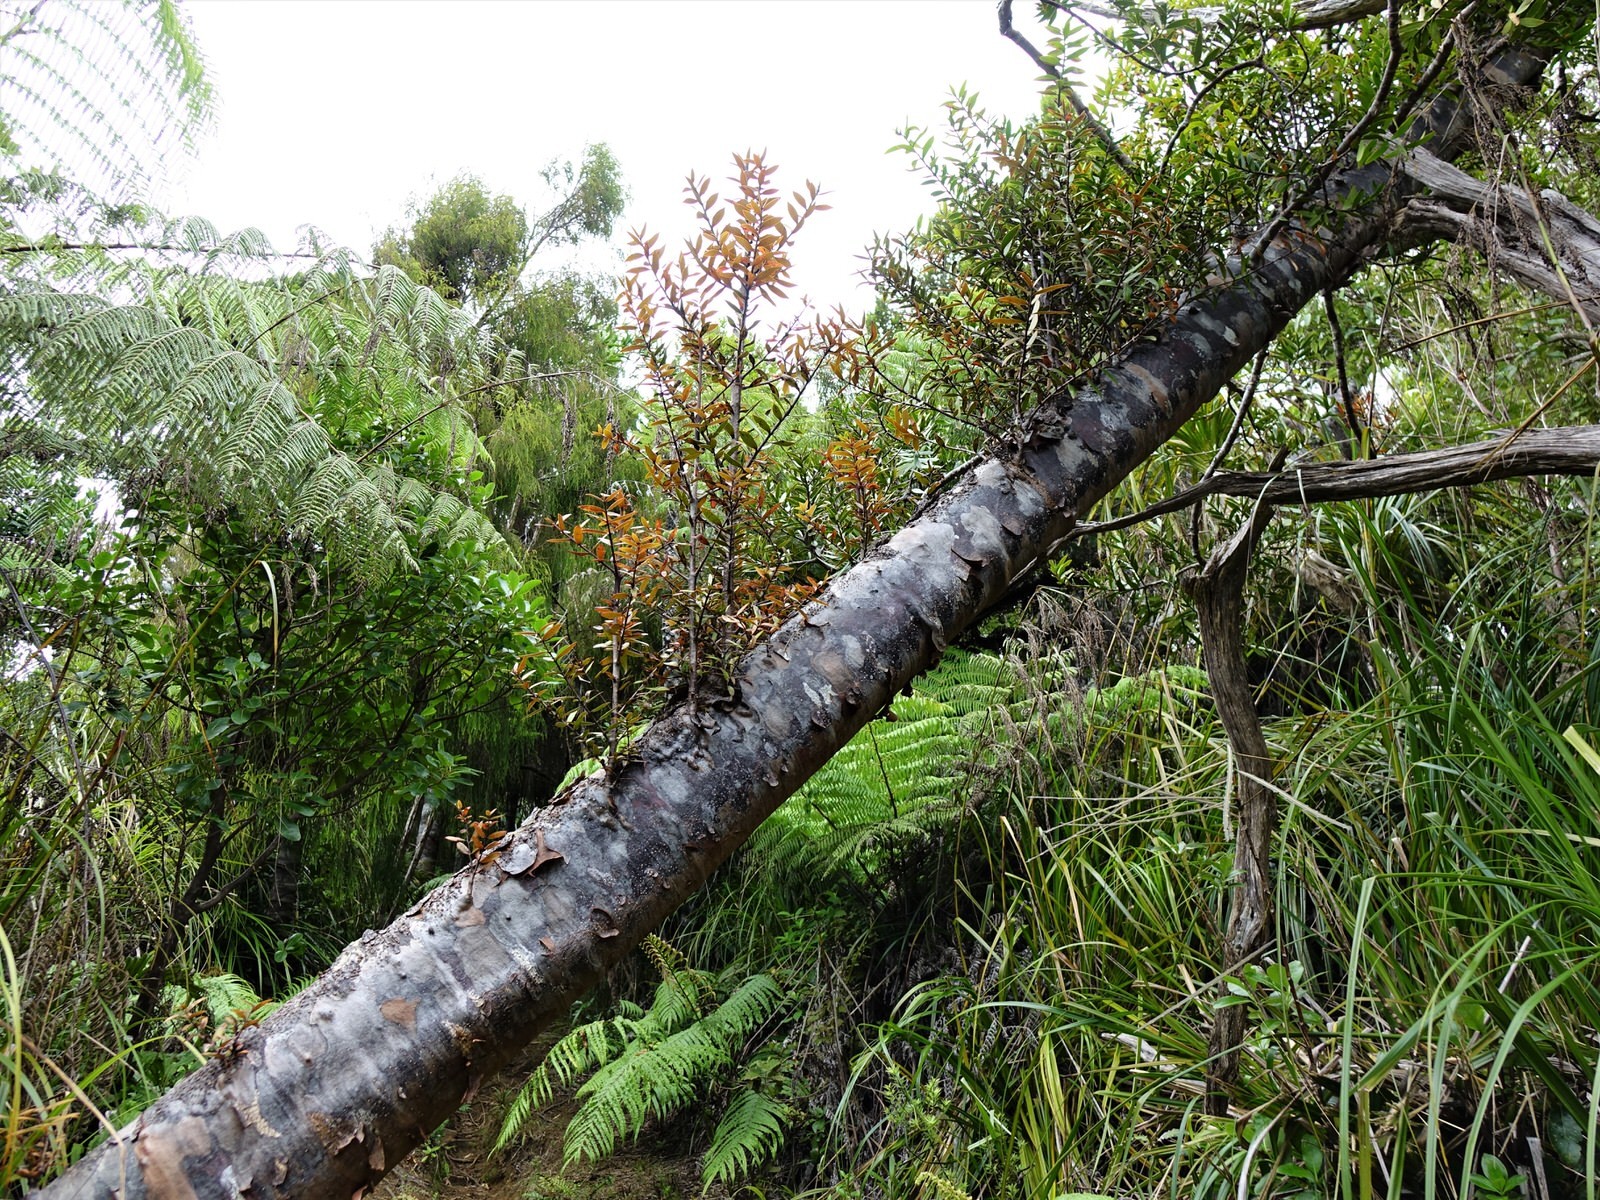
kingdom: Plantae
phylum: Tracheophyta
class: Pinopsida
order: Pinales
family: Araucariaceae
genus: Agathis
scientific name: Agathis australis
